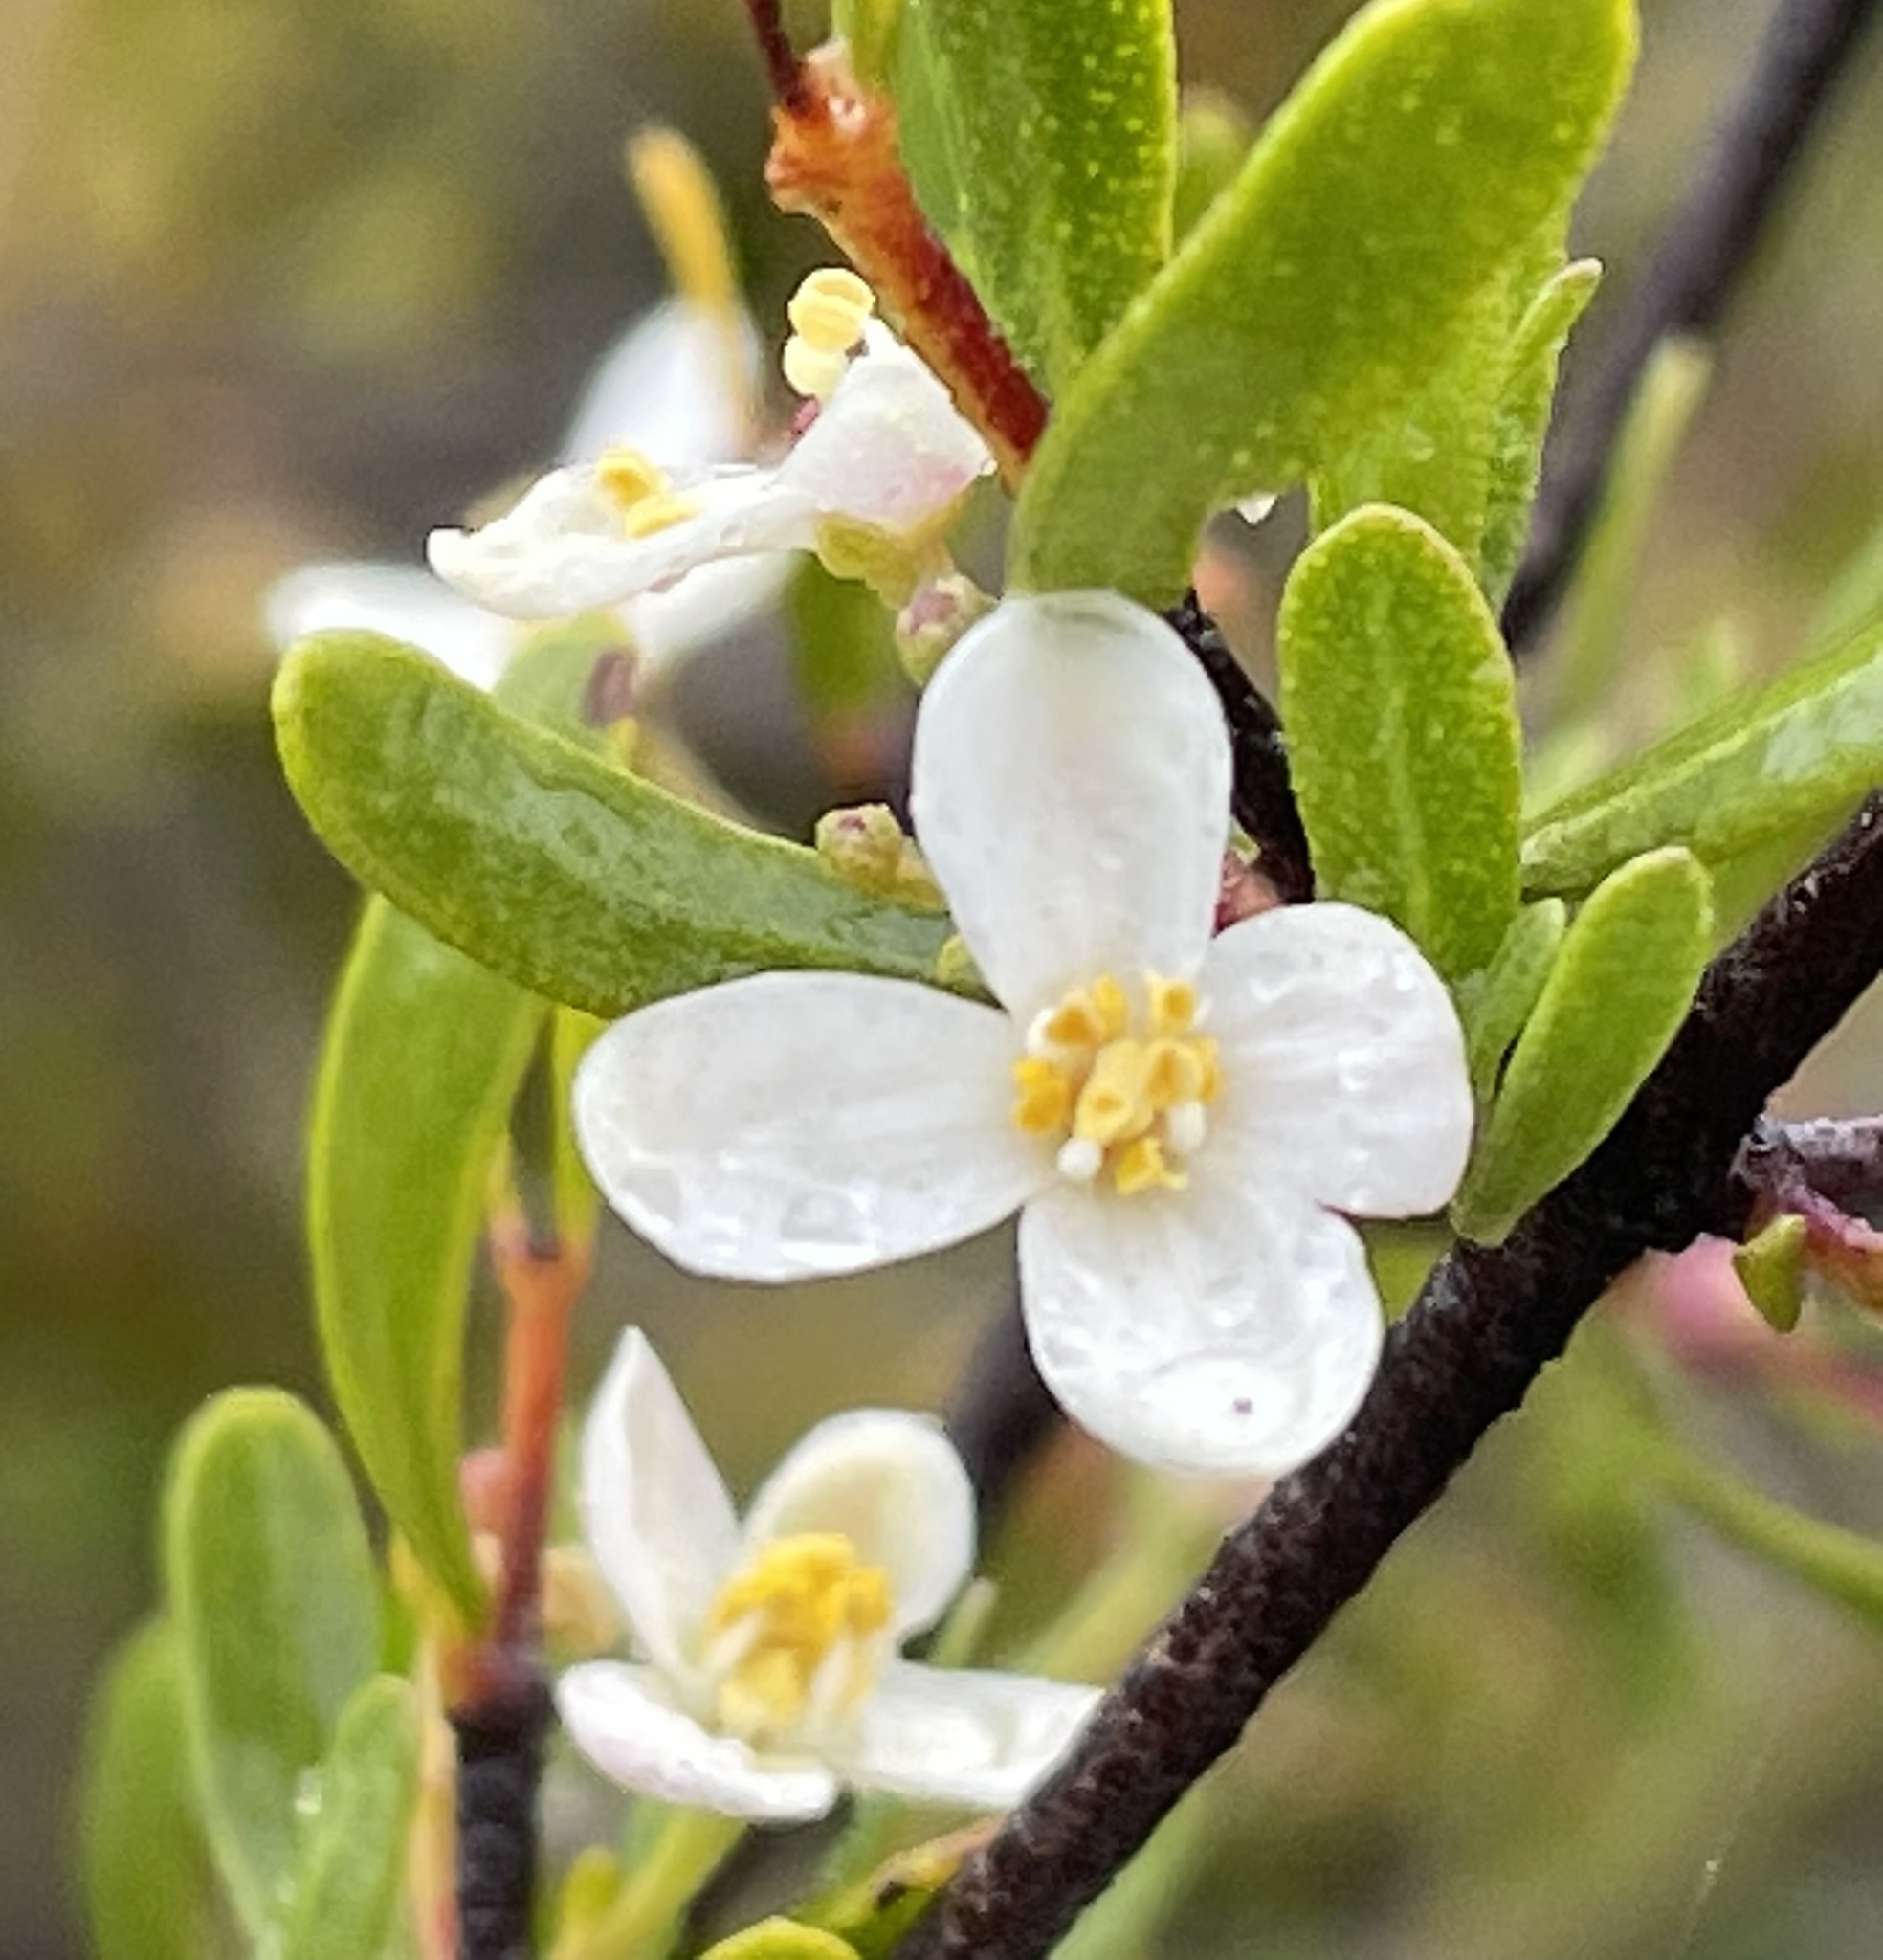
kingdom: Plantae
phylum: Tracheophyta
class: Magnoliopsida
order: Sapindales
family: Rutaceae
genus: Cneoridium
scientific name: Cneoridium dumosum
